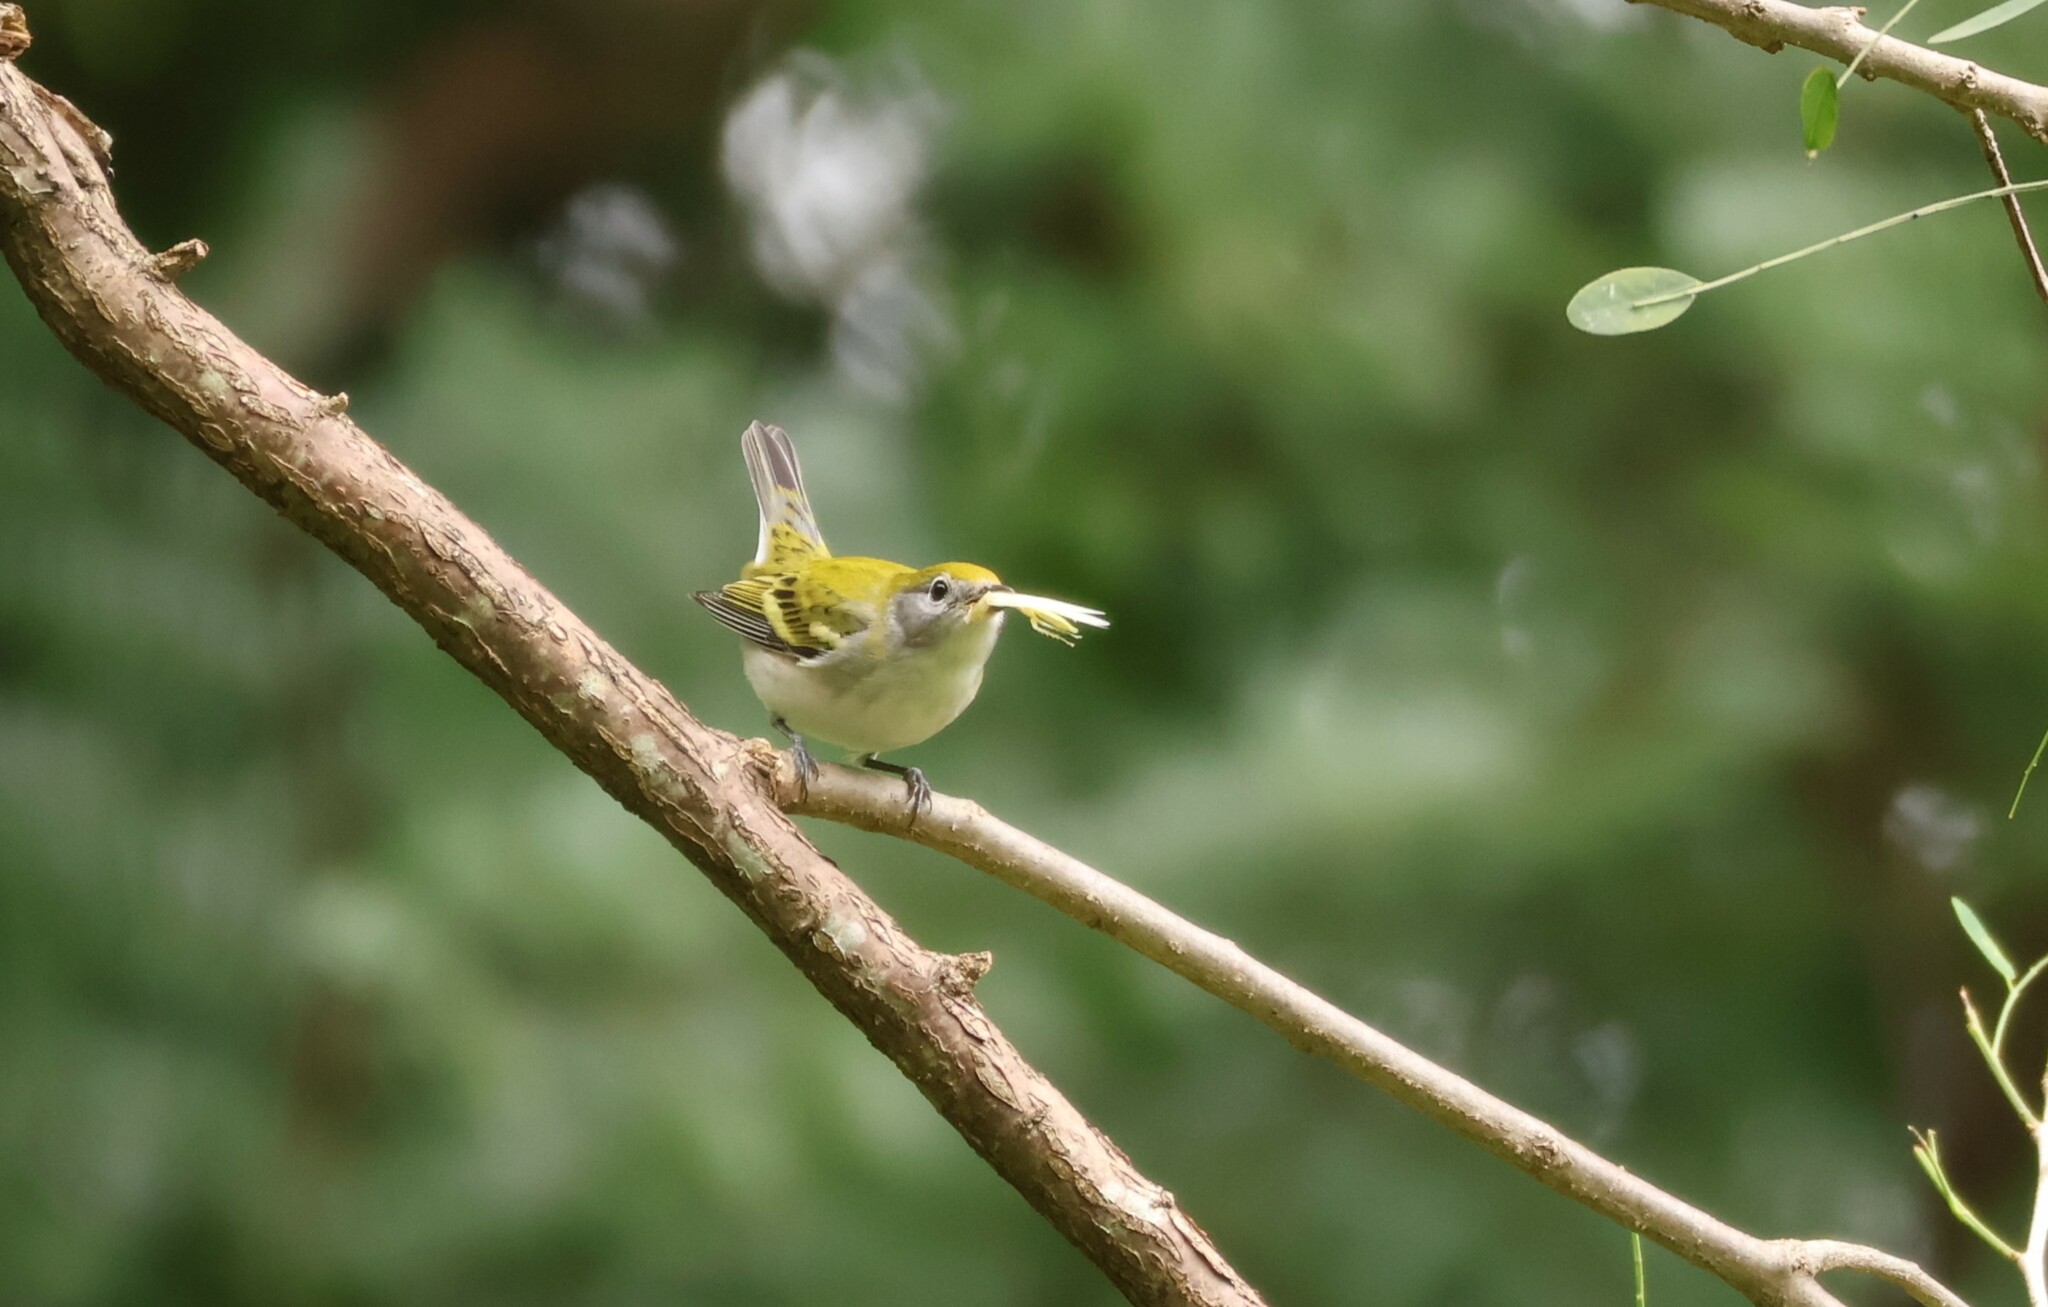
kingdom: Animalia
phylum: Chordata
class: Aves
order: Passeriformes
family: Parulidae
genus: Setophaga
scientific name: Setophaga pensylvanica
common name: Chestnut-sided warbler
